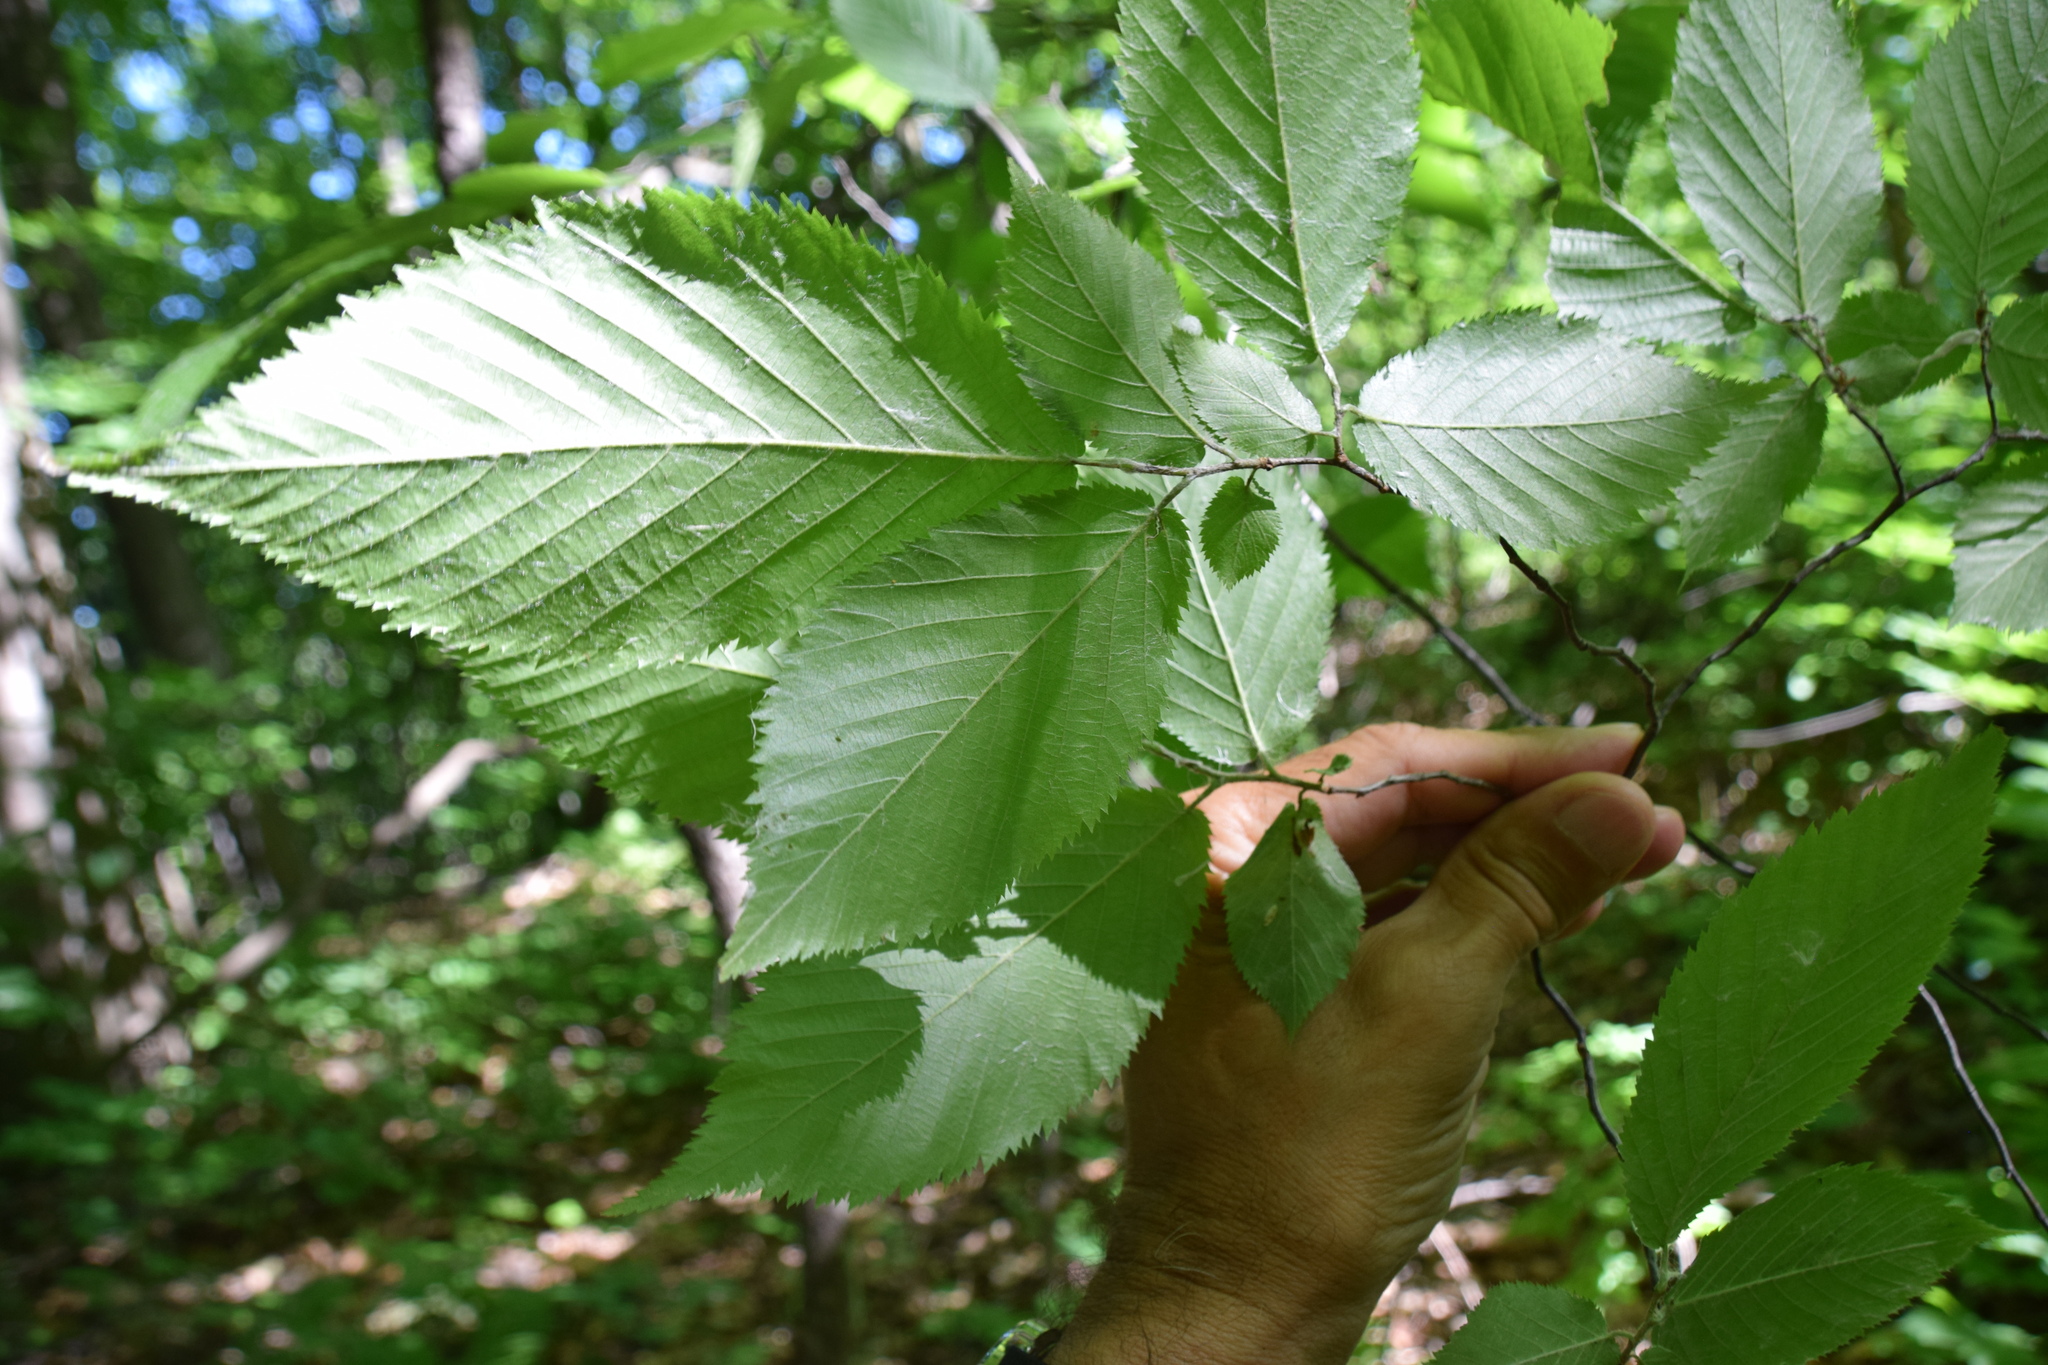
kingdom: Plantae
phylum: Tracheophyta
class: Magnoliopsida
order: Fagales
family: Betulaceae
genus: Ostrya
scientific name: Ostrya virginiana
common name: Ironwood
